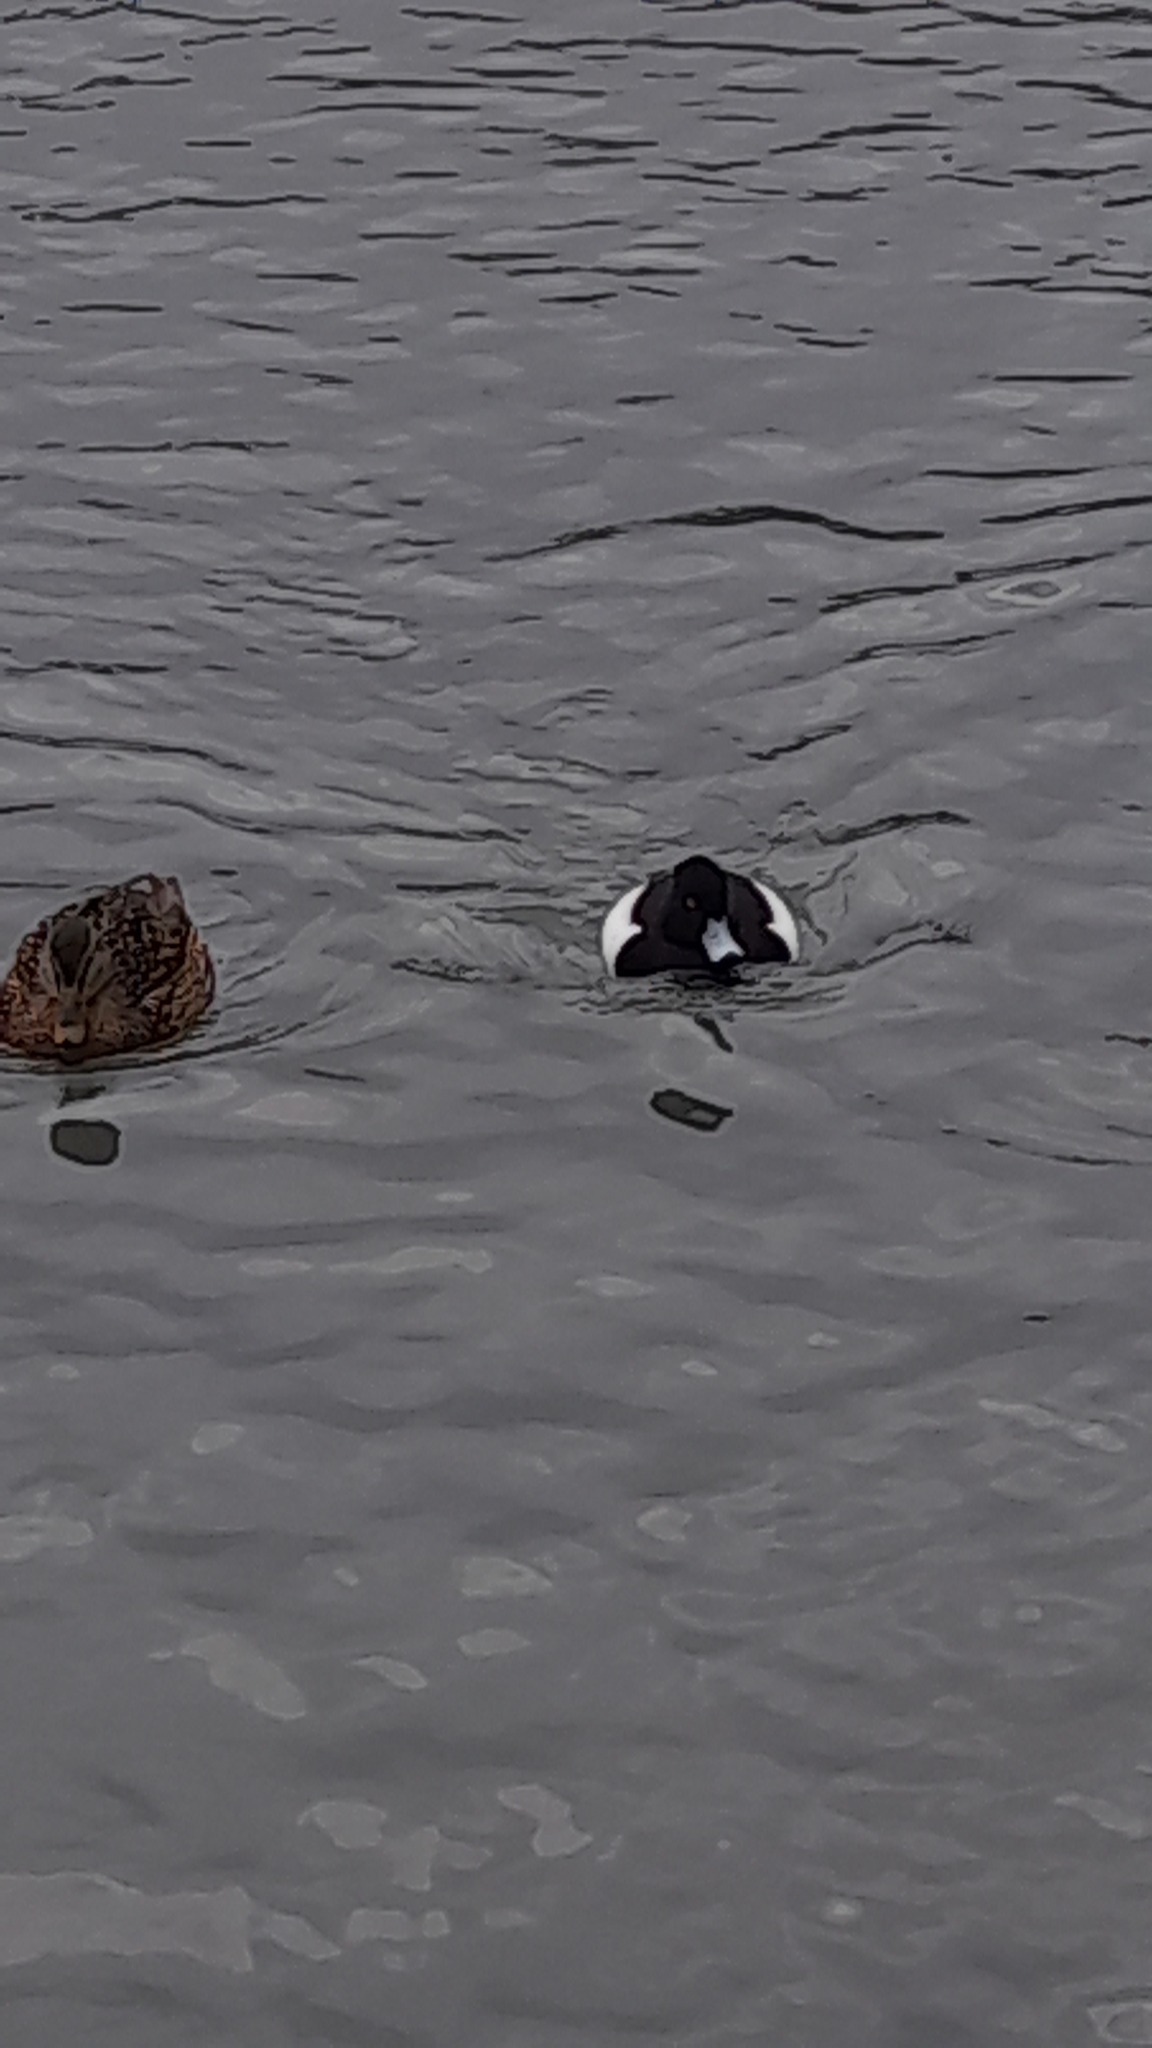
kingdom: Animalia
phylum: Chordata
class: Aves
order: Anseriformes
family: Anatidae
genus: Aythya
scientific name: Aythya fuligula
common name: Tufted duck
